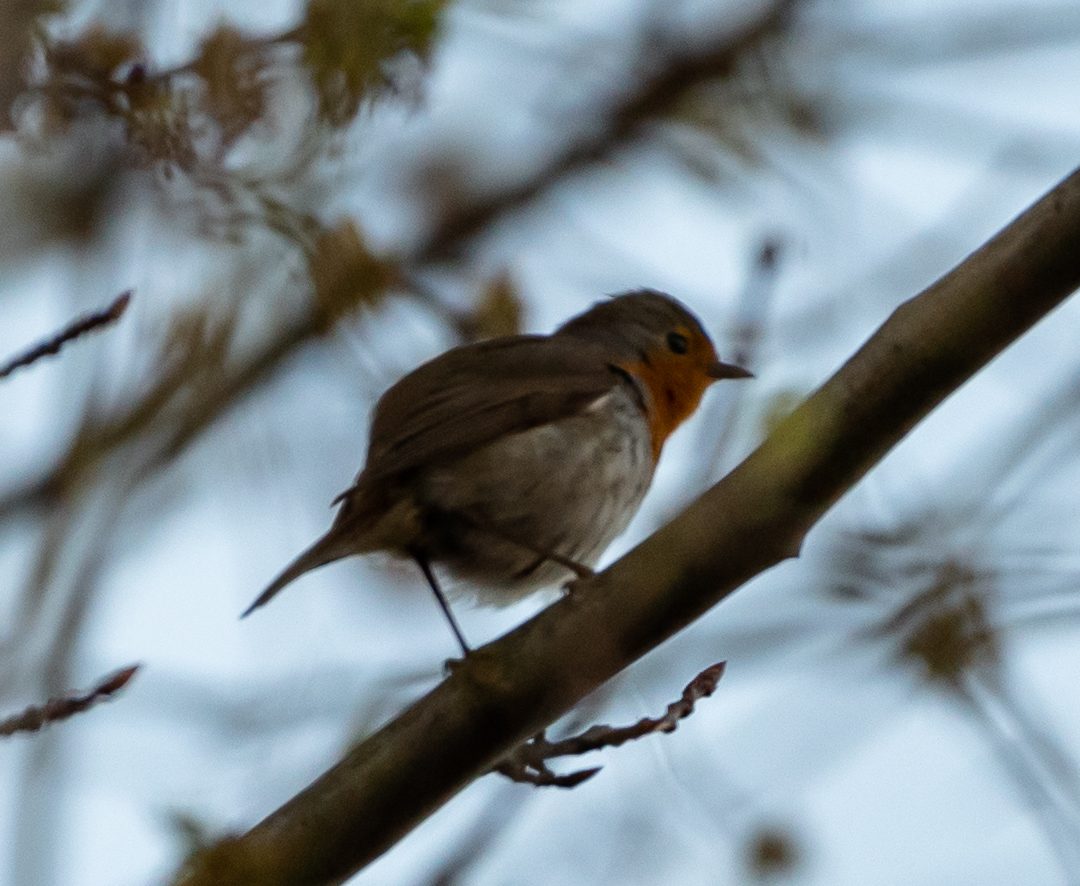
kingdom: Animalia
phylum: Chordata
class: Aves
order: Passeriformes
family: Muscicapidae
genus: Erithacus
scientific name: Erithacus rubecula
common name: European robin
